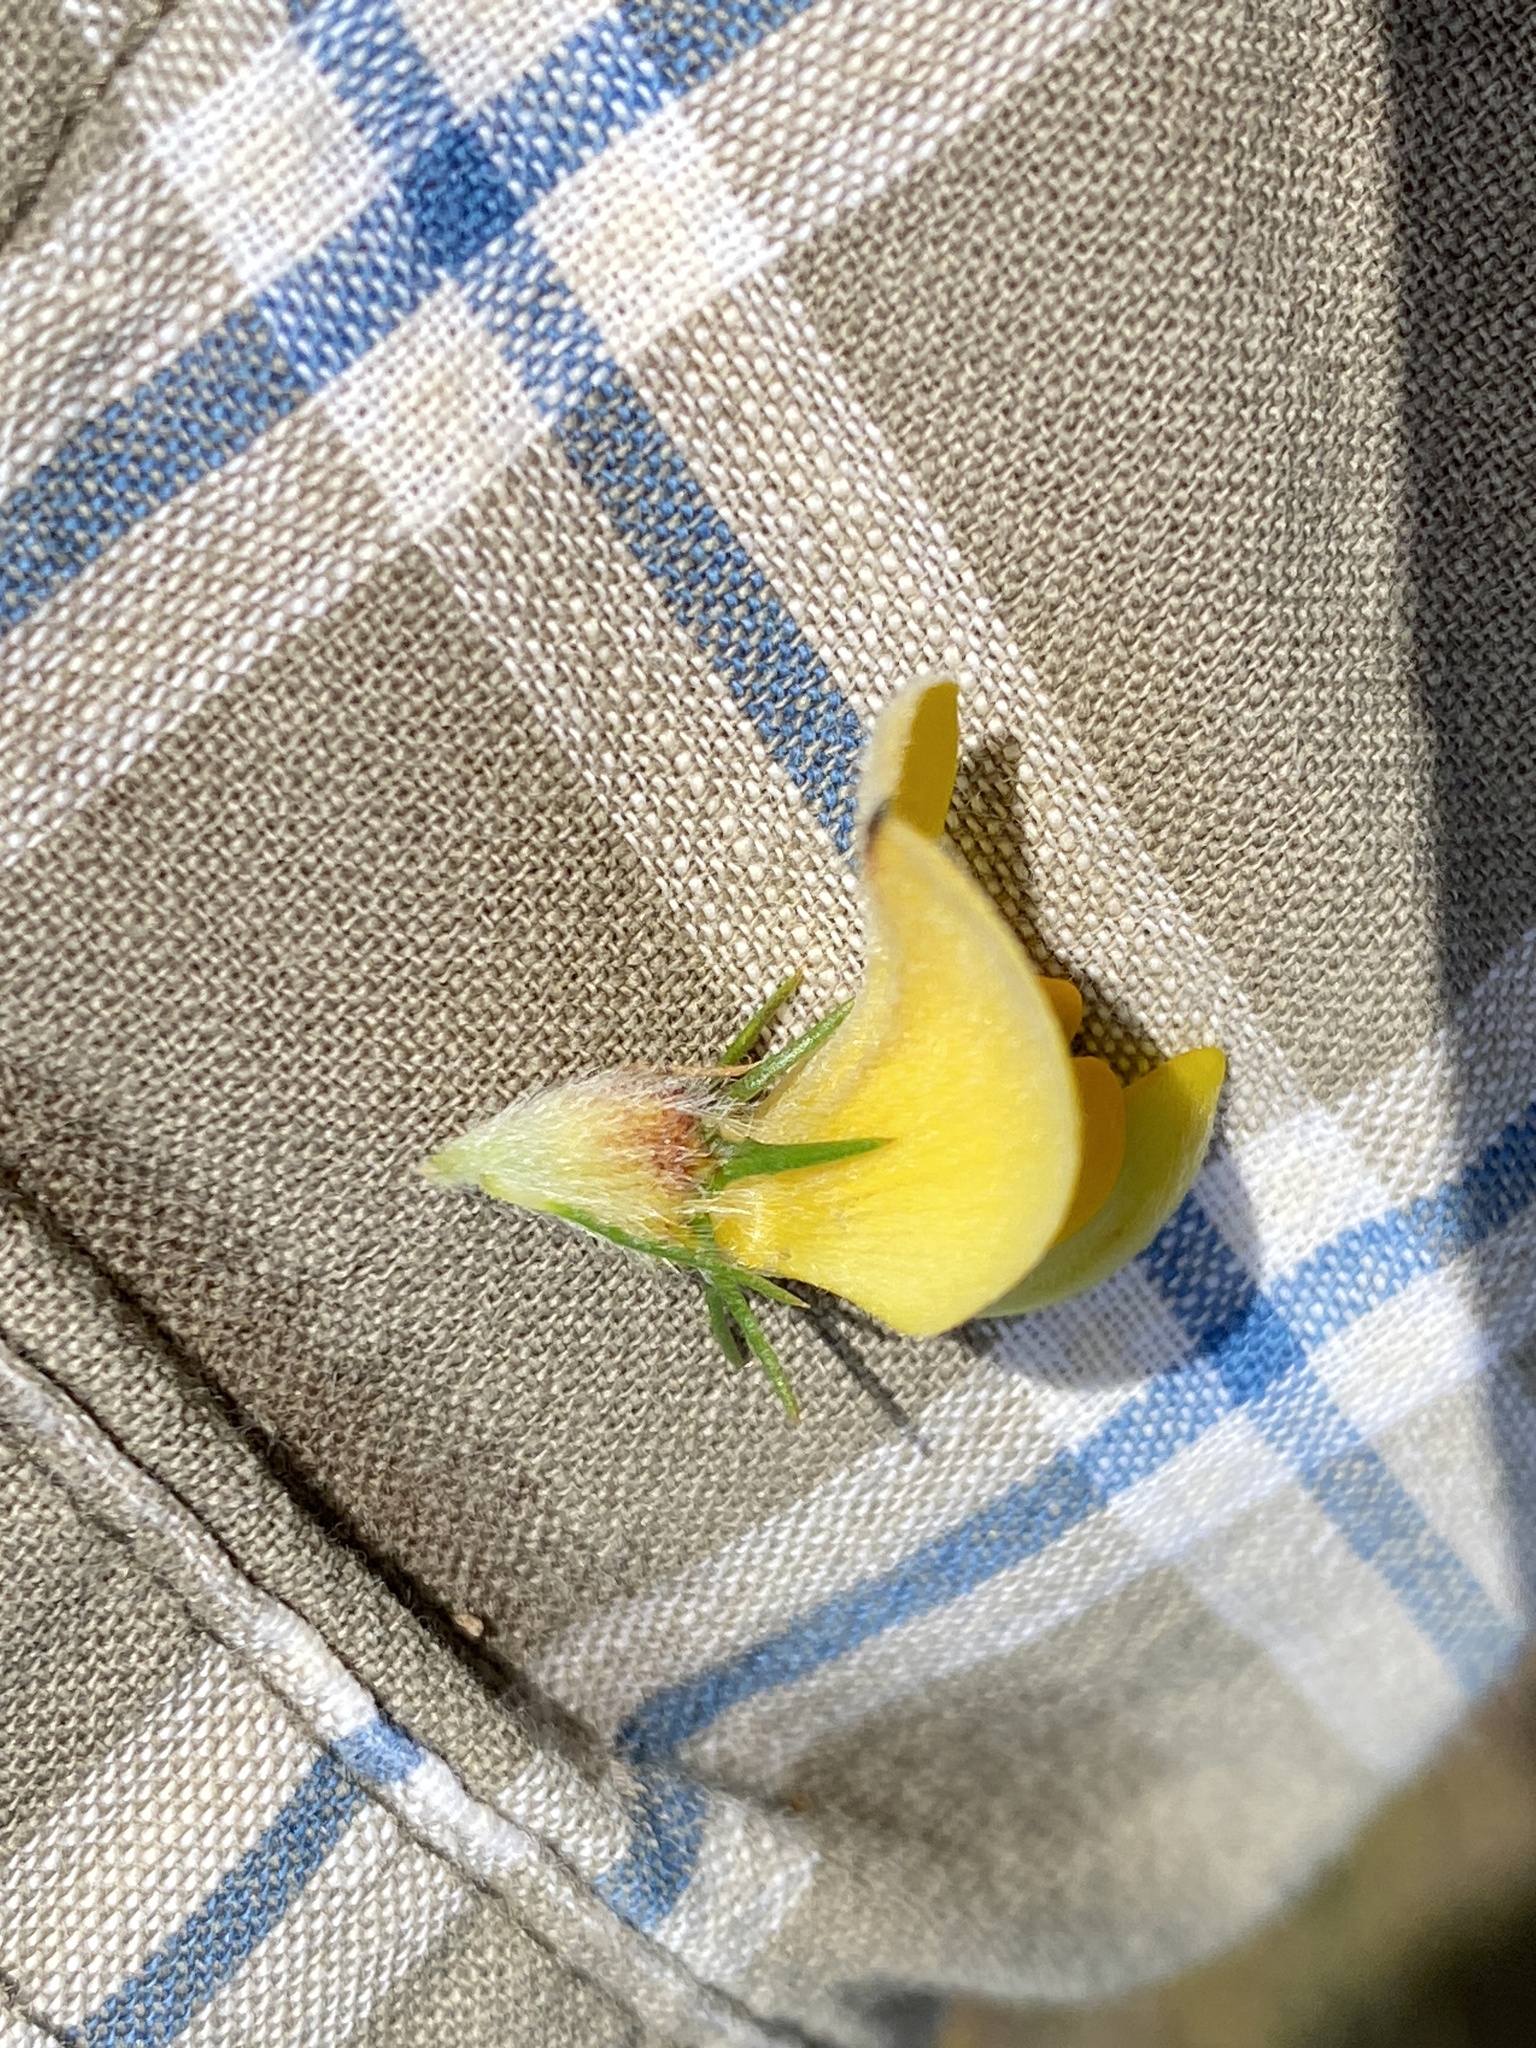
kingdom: Plantae
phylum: Tracheophyta
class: Magnoliopsida
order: Fabales
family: Fabaceae
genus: Aspalathus
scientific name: Aspalathus spicata
